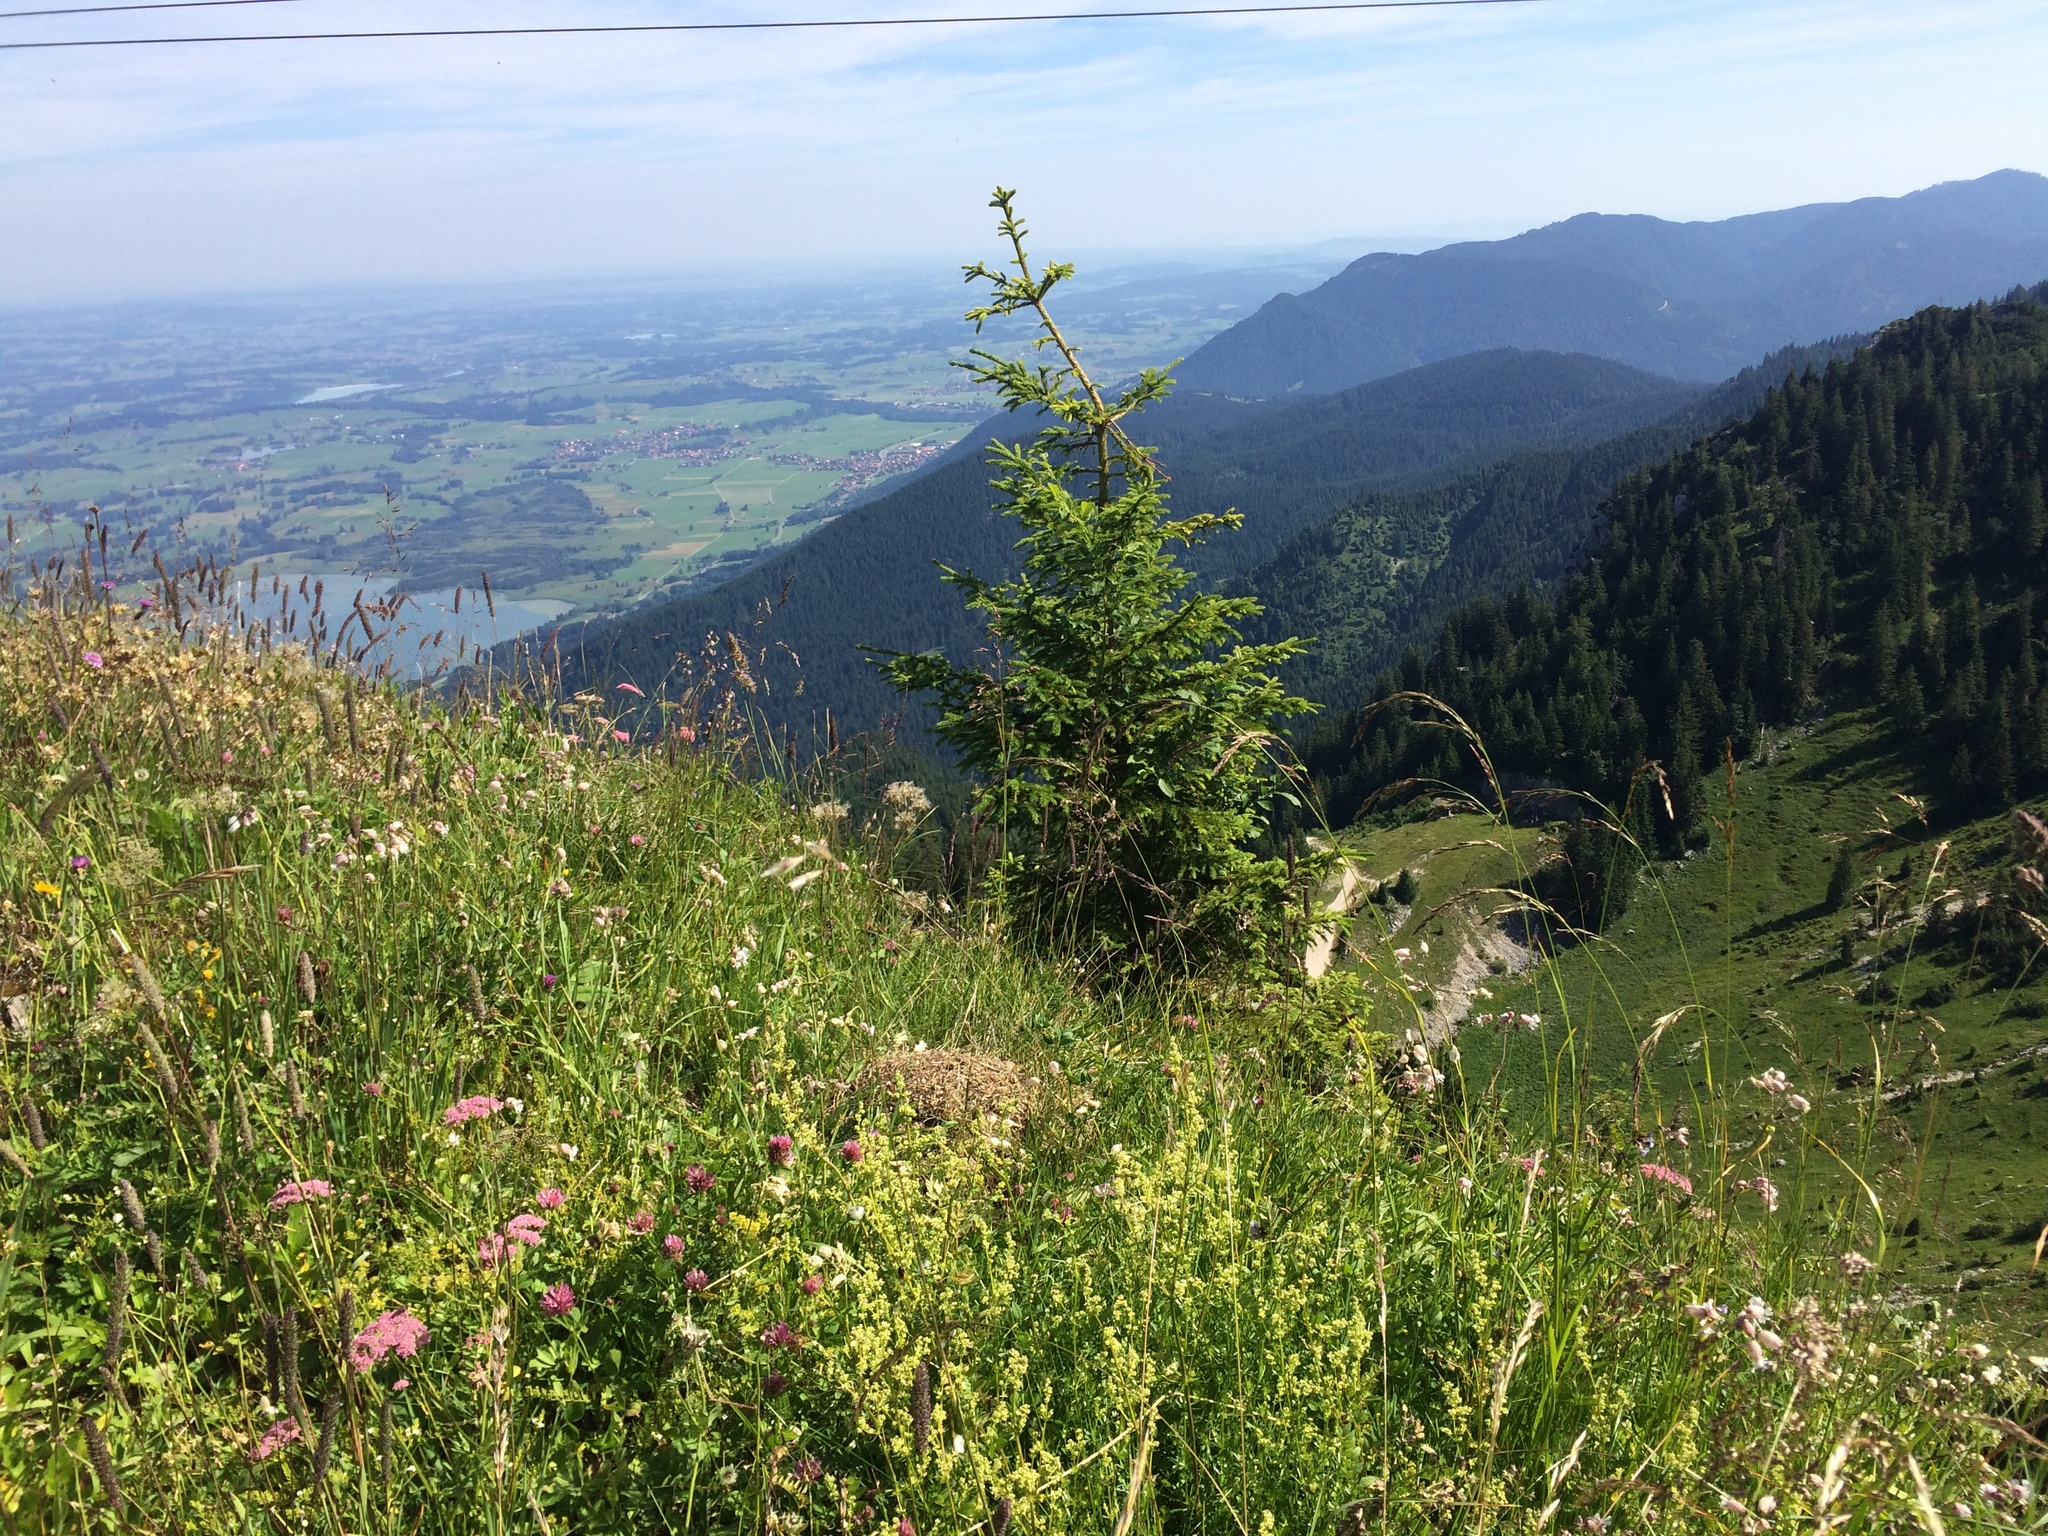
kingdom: Plantae
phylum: Tracheophyta
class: Pinopsida
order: Pinales
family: Pinaceae
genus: Picea
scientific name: Picea abies
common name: Norway spruce
